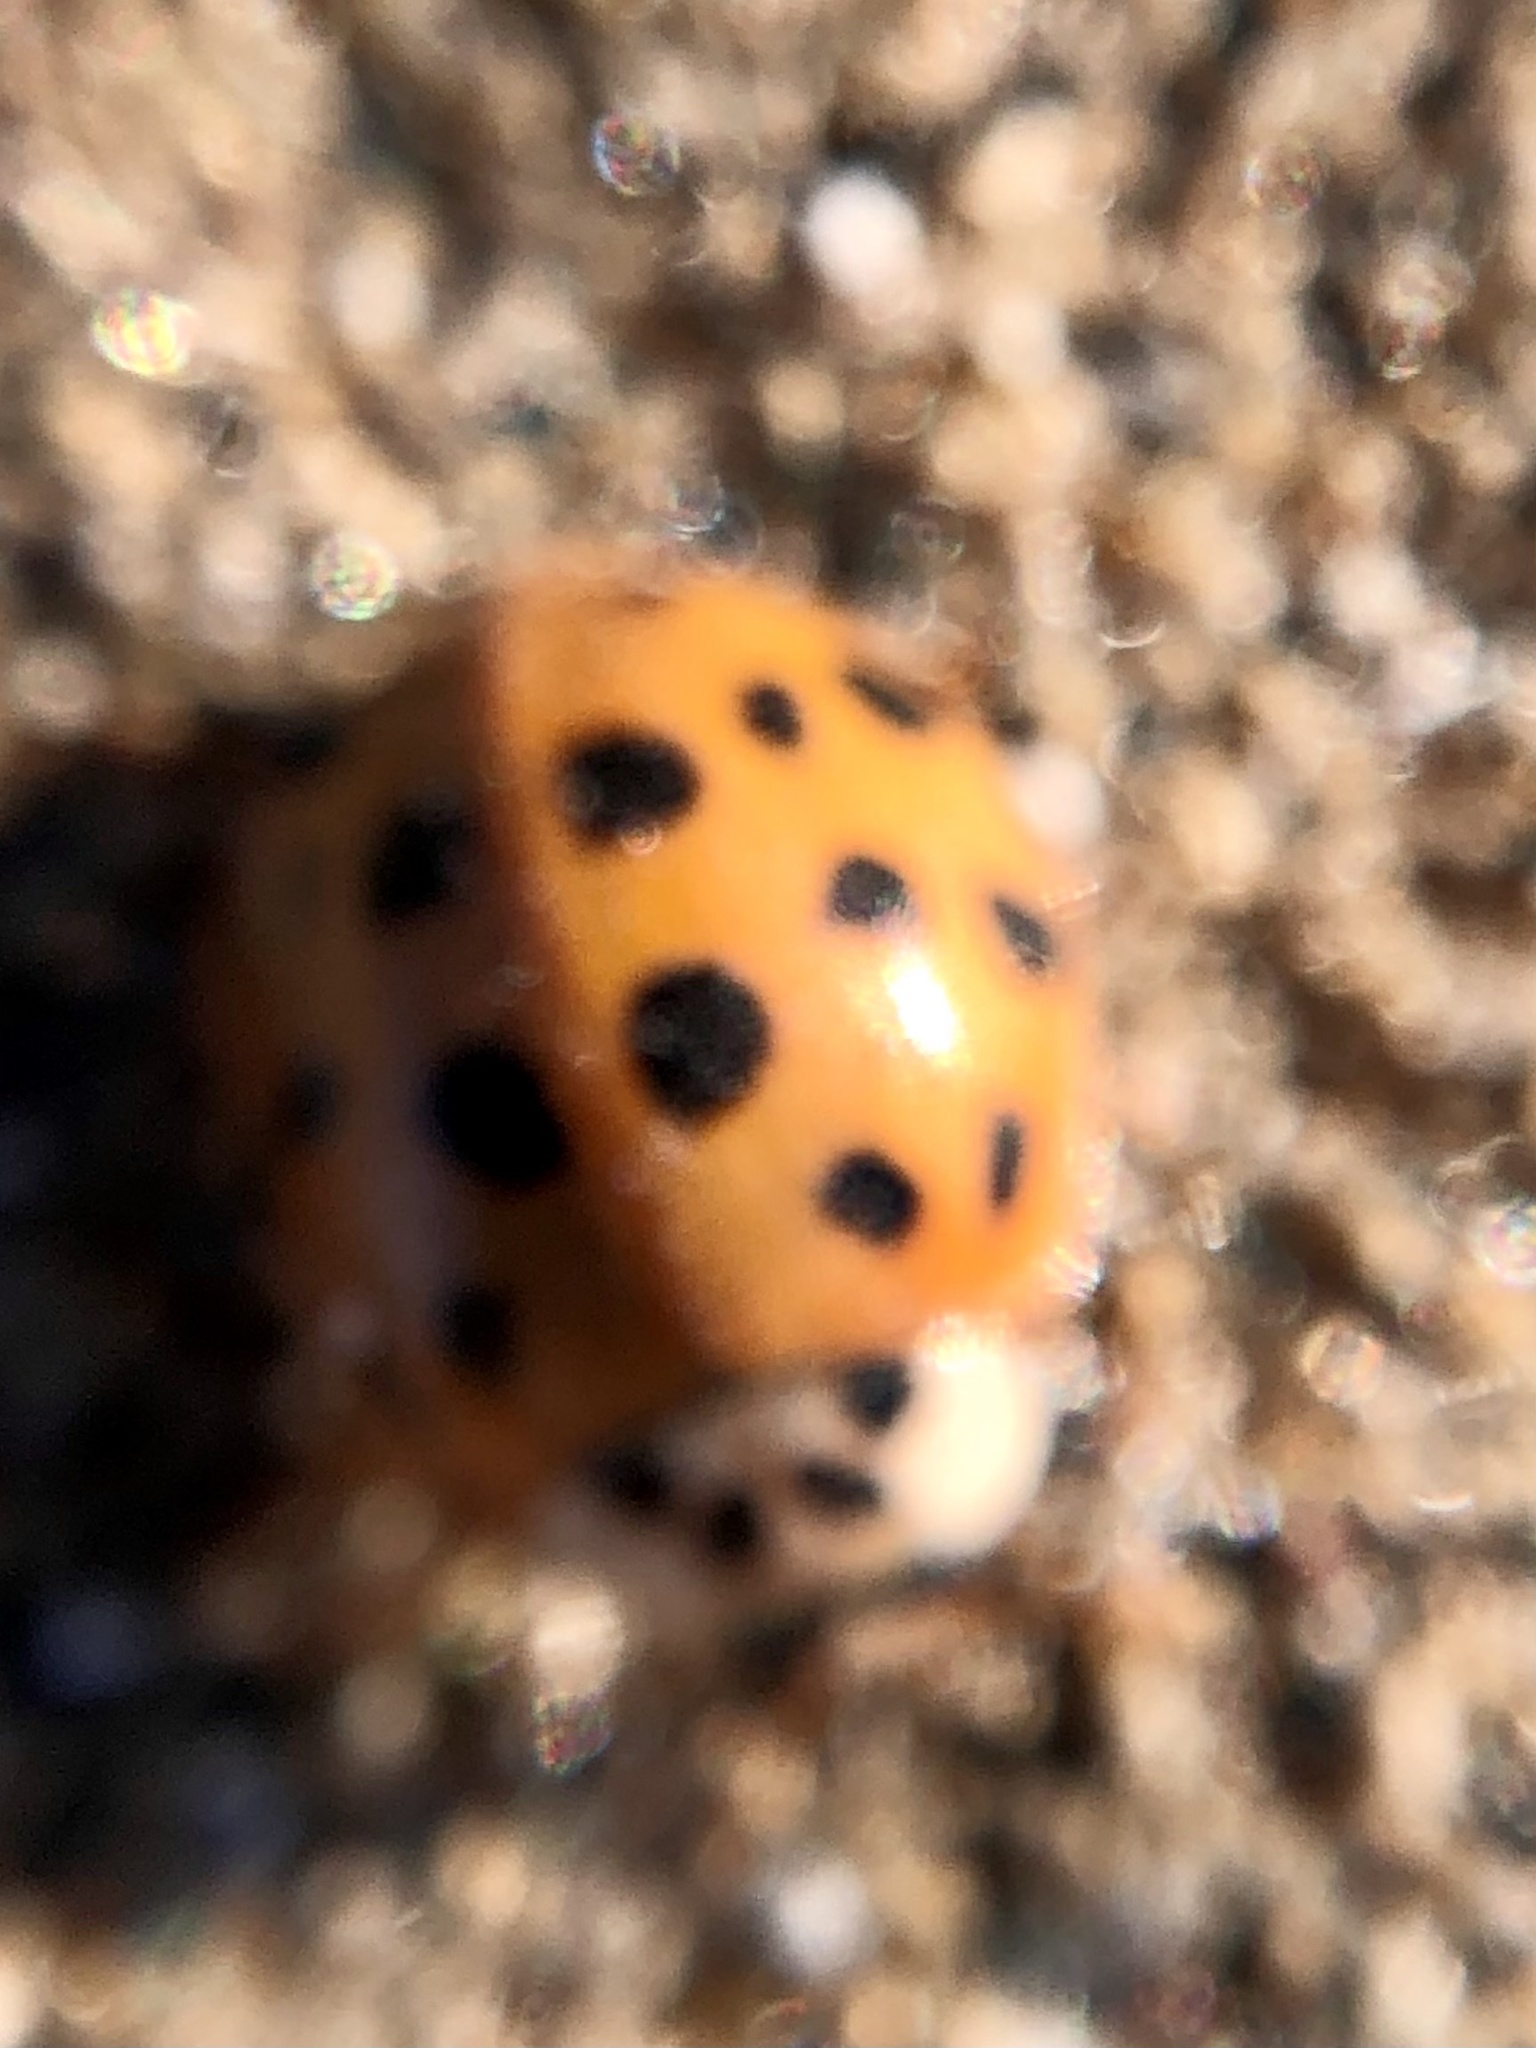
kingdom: Animalia
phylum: Arthropoda
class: Insecta
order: Coleoptera
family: Coccinellidae
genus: Harmonia
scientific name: Harmonia axyridis
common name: Harlequin ladybird
